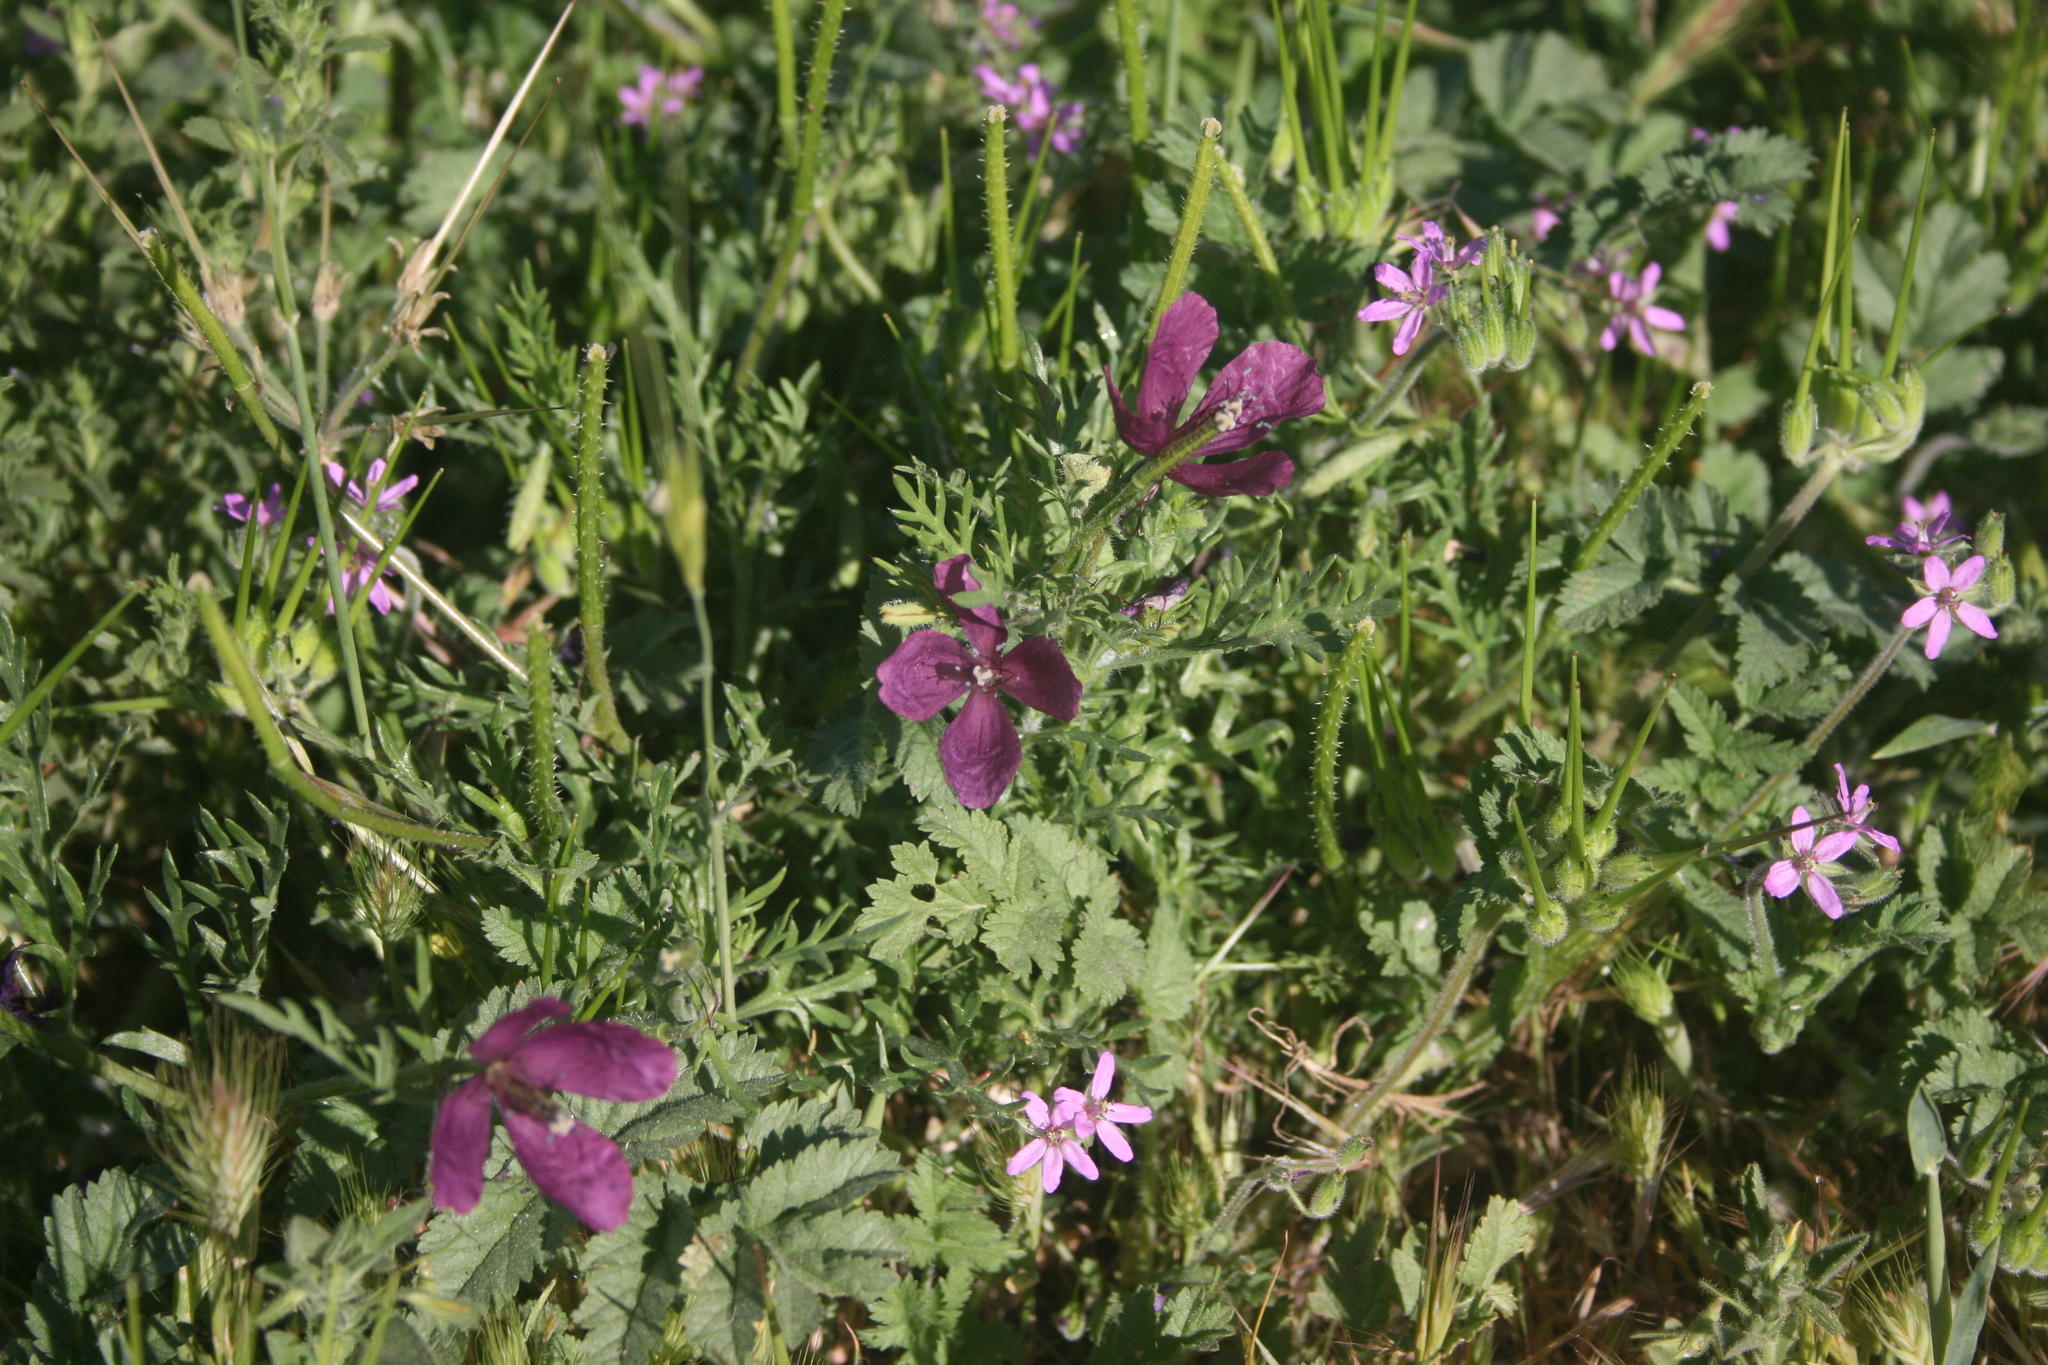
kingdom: Plantae
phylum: Tracheophyta
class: Magnoliopsida
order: Ranunculales
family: Papaveraceae
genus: Roemeria
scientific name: Roemeria hybrida
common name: Violet horned-poppy
